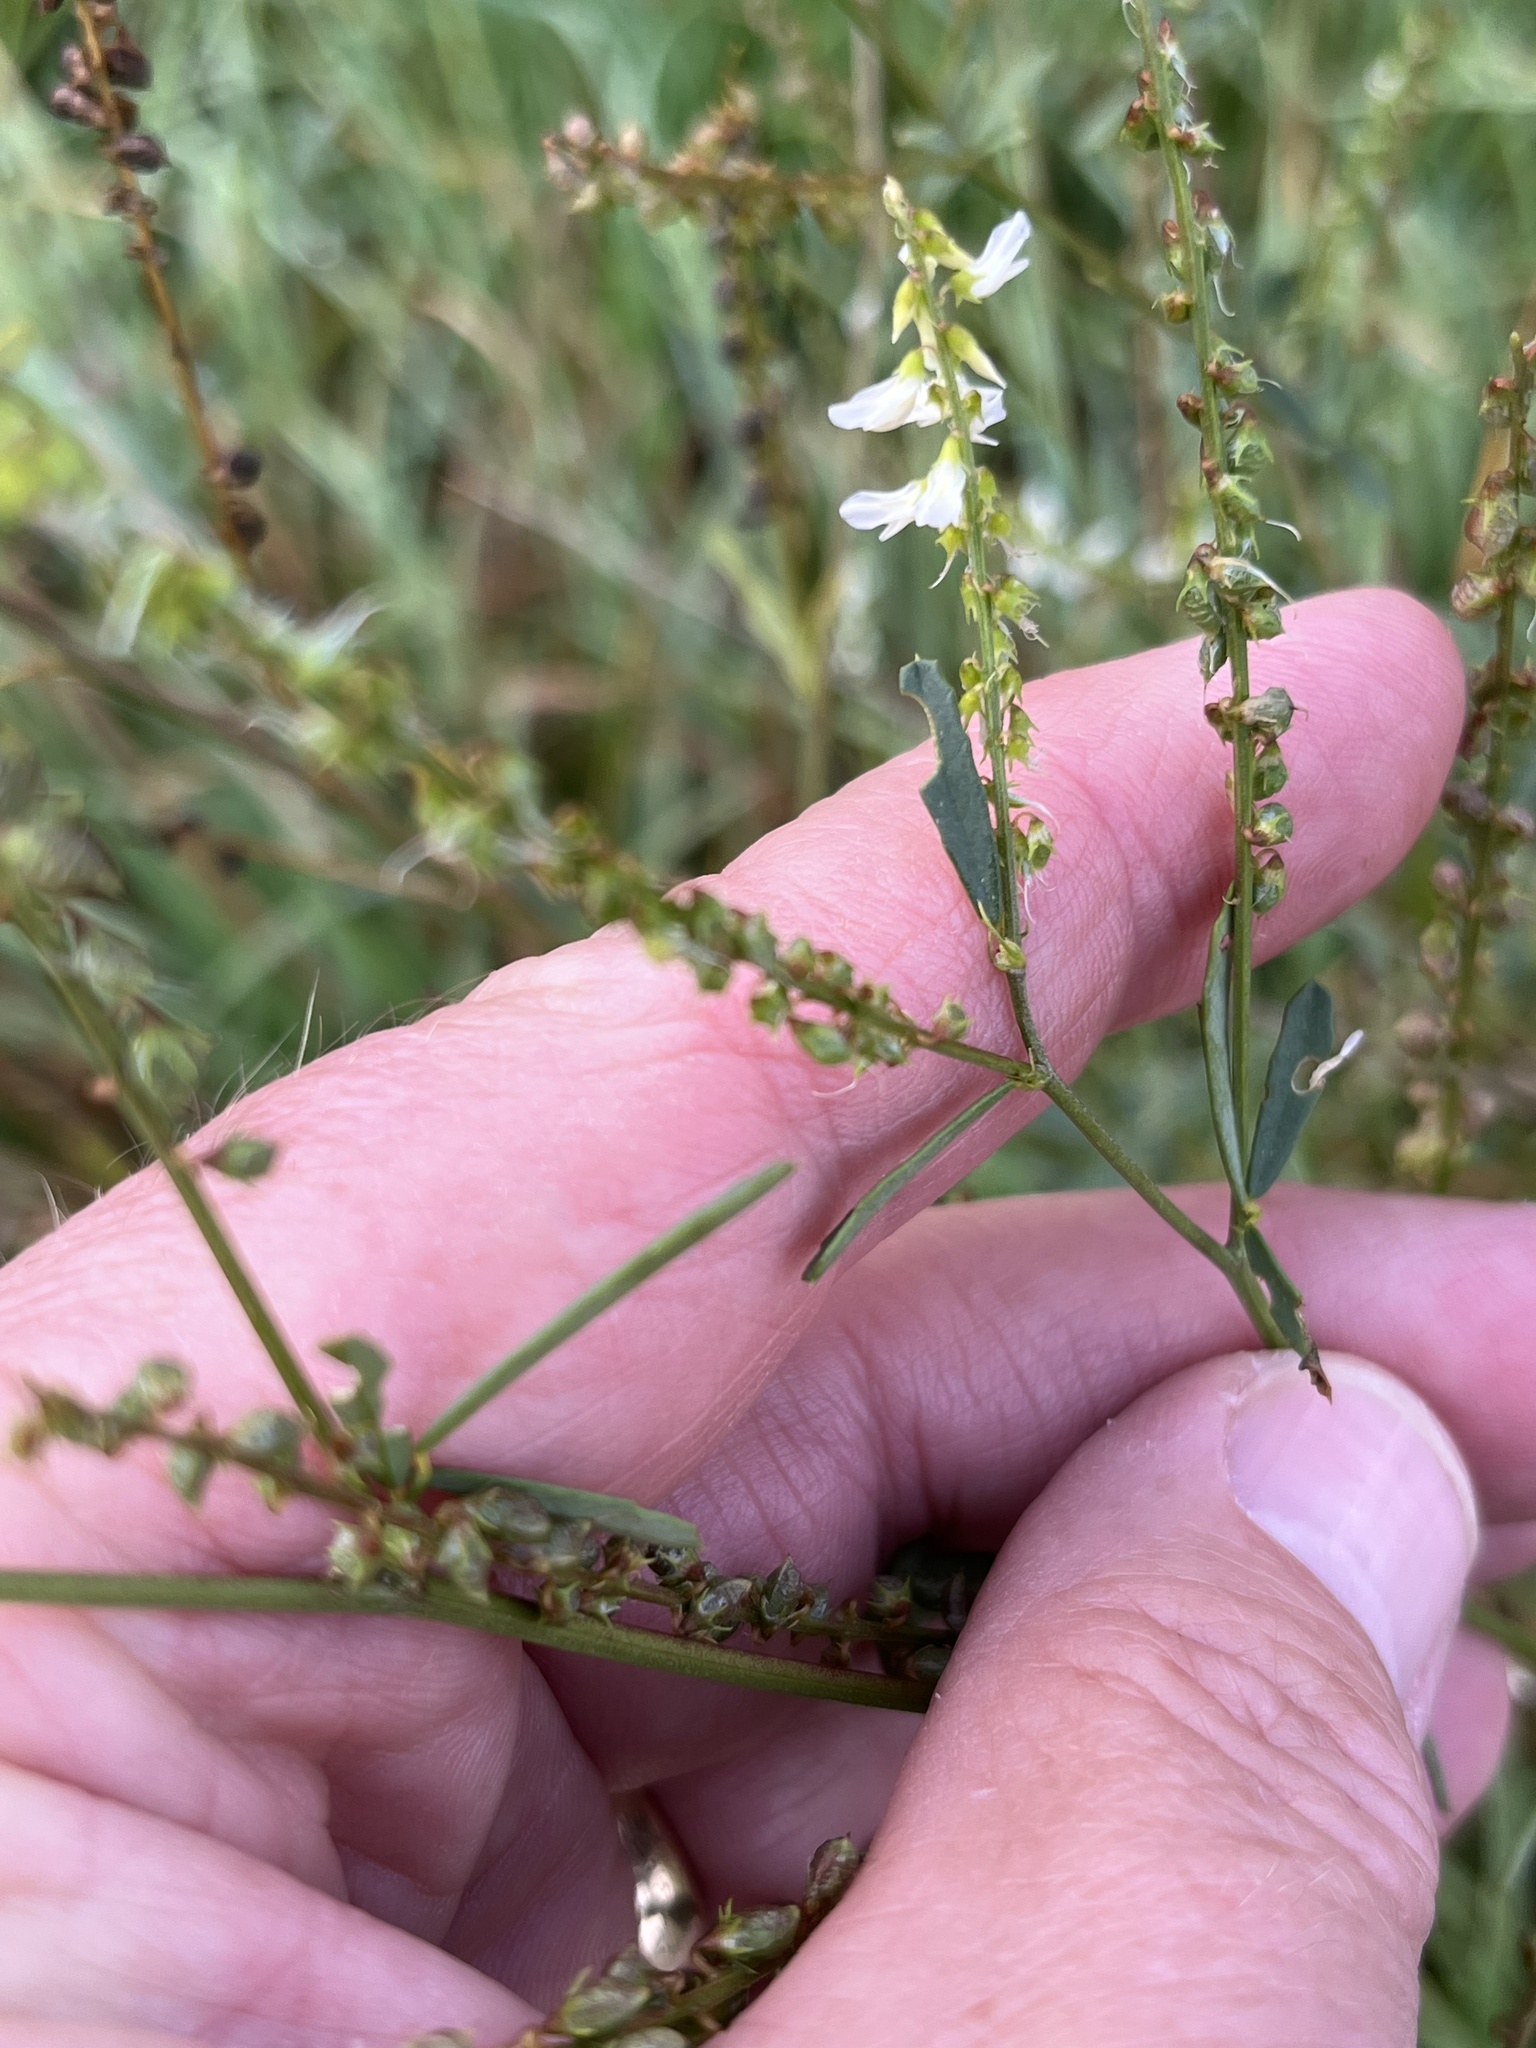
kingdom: Plantae
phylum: Tracheophyta
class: Magnoliopsida
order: Fabales
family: Fabaceae
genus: Melilotus
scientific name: Melilotus albus
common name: White melilot
